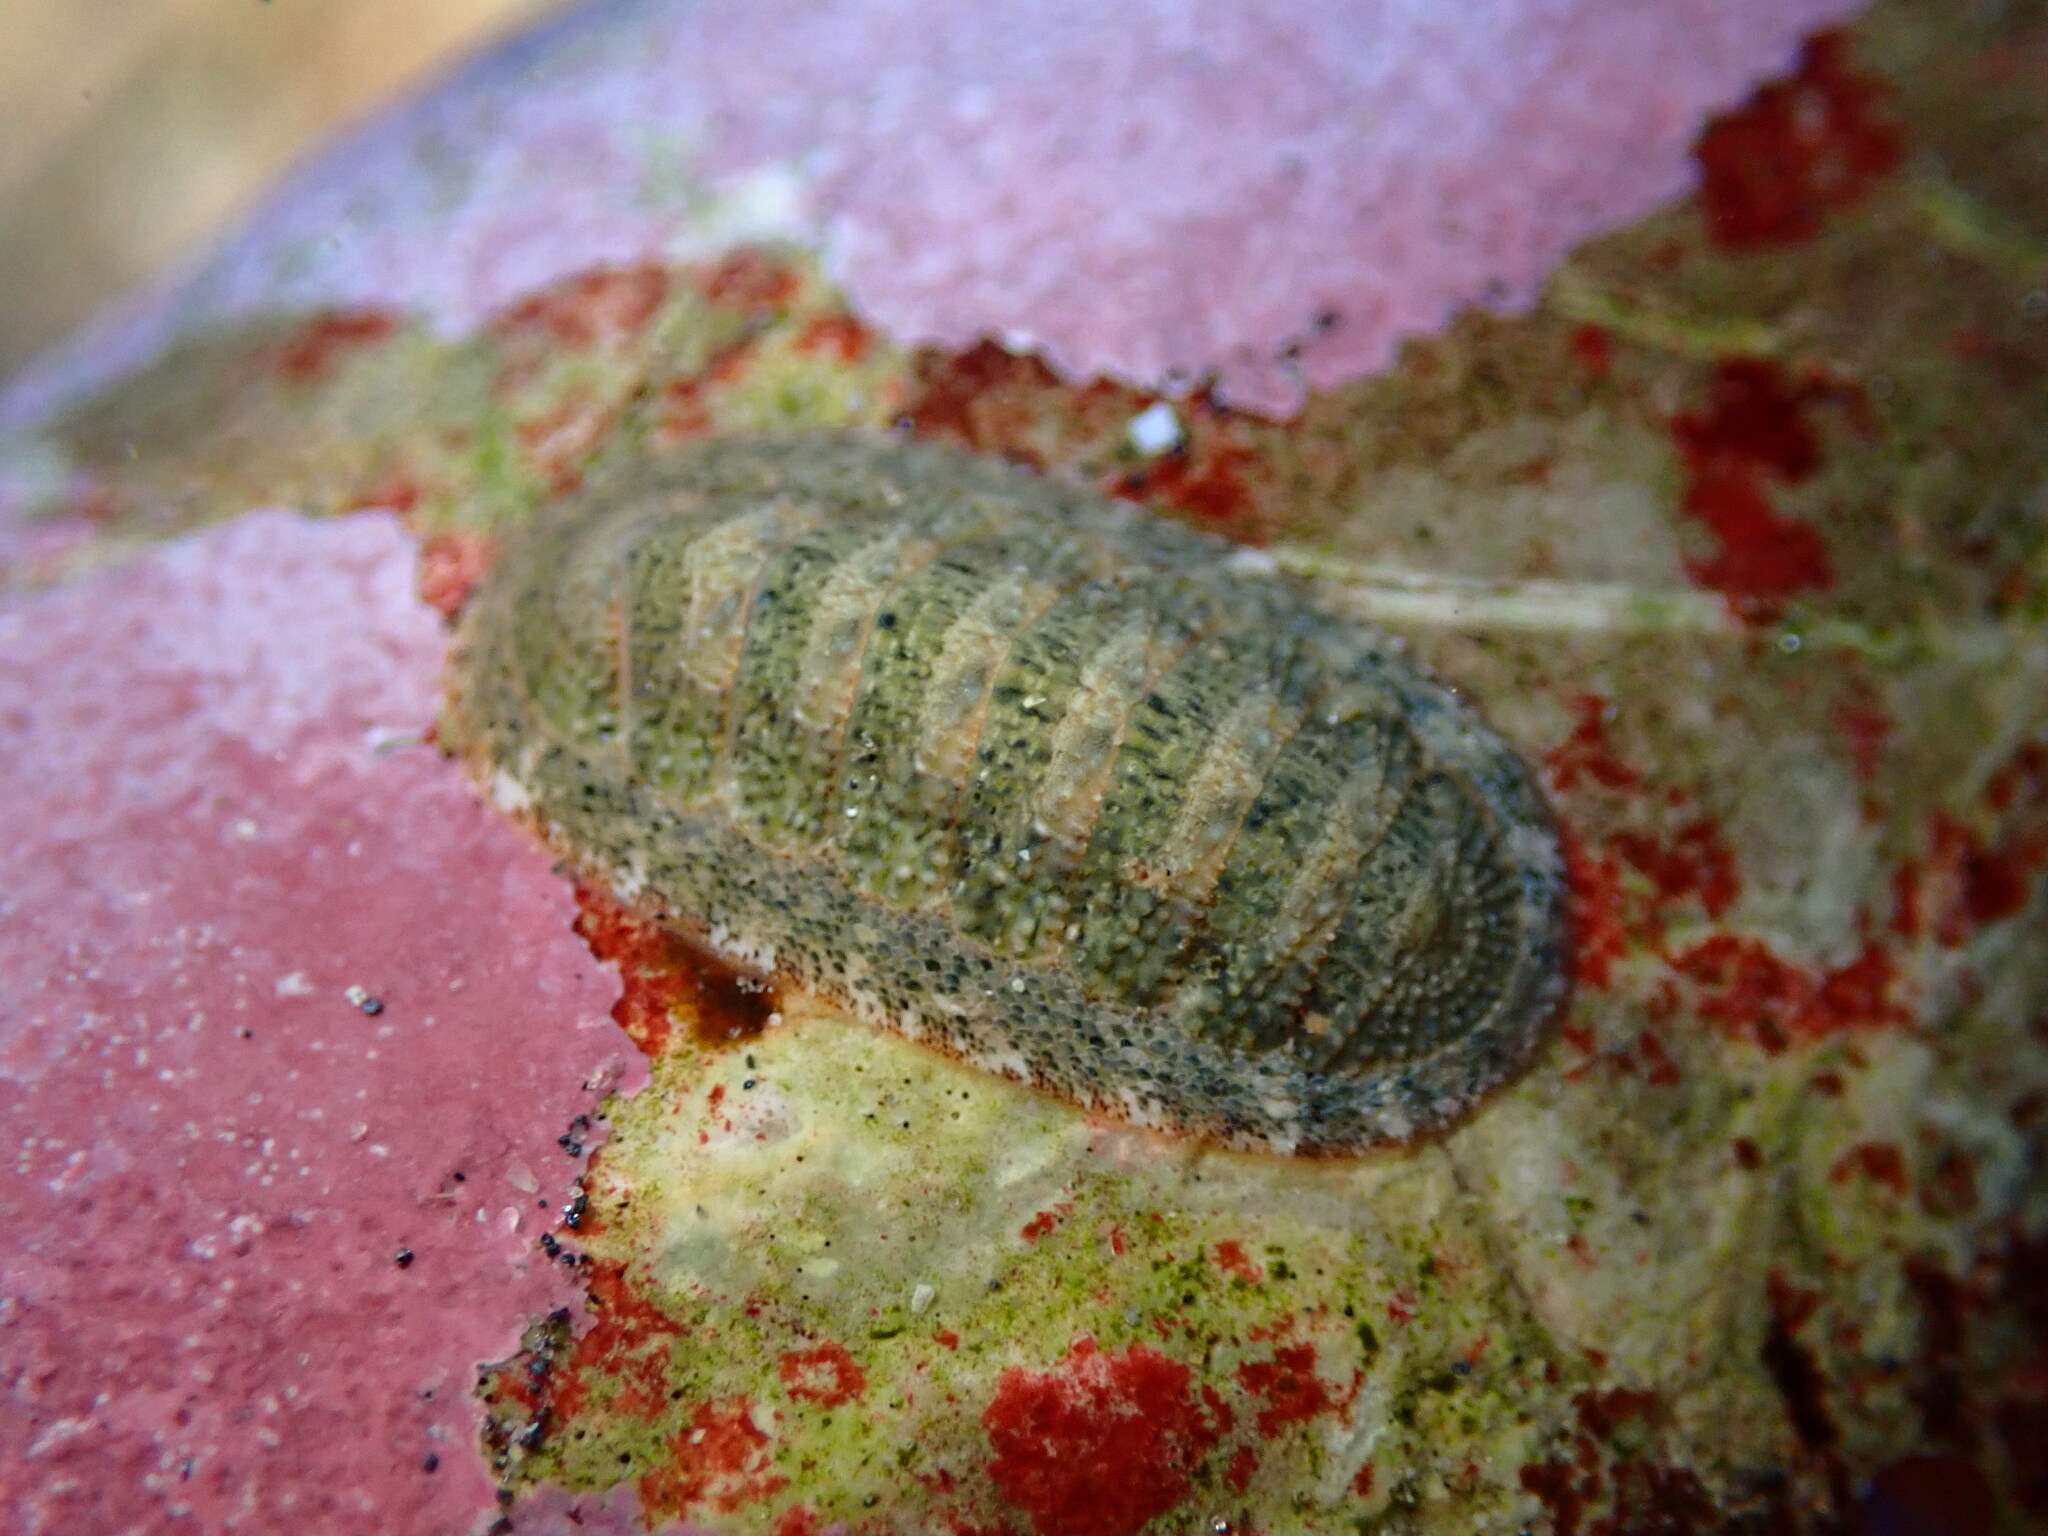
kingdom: Animalia
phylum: Mollusca
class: Polyplacophora
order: Chitonida
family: Ischnochitonidae
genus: Lepidozona
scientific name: Lepidozona pectinulata
